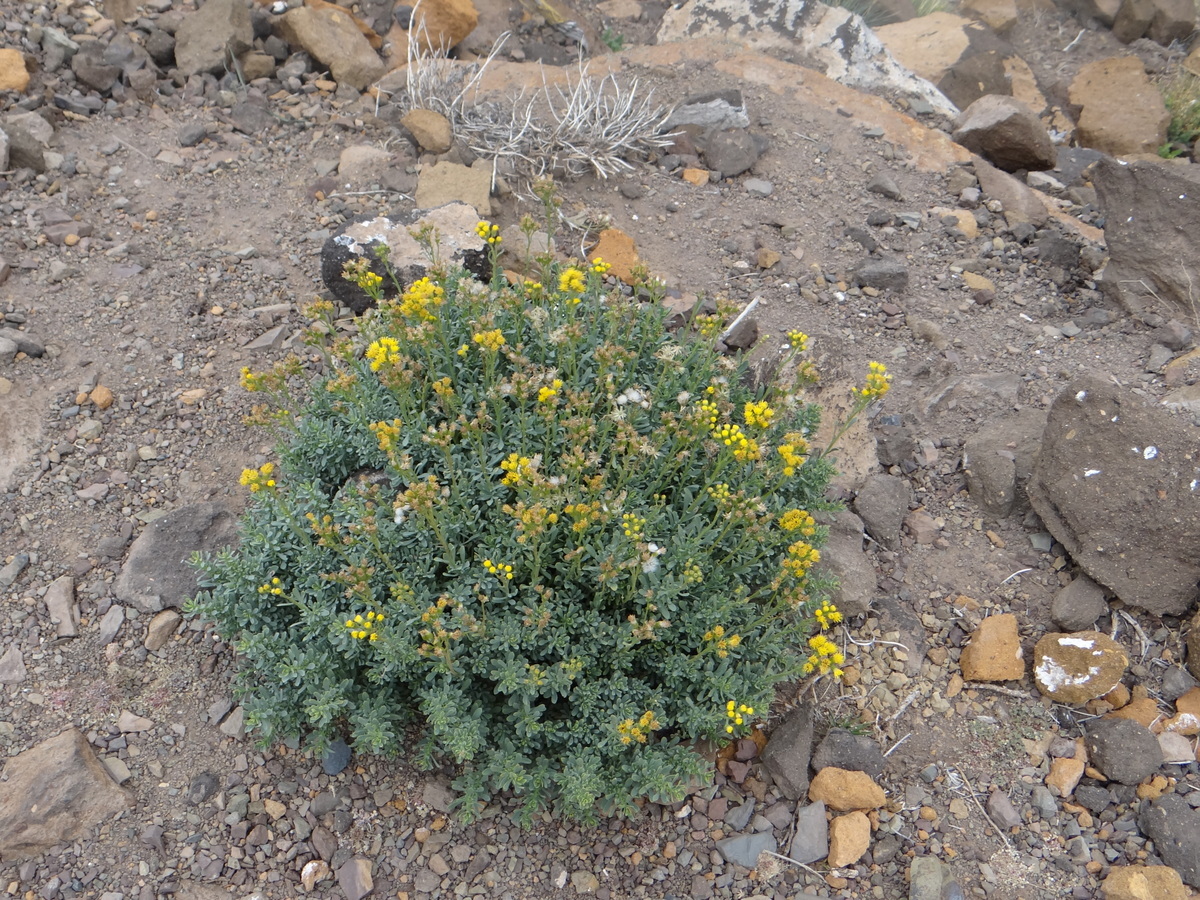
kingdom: Plantae
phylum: Tracheophyta
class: Magnoliopsida
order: Asterales
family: Asteraceae
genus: Senecio
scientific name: Senecio subumbellatus
